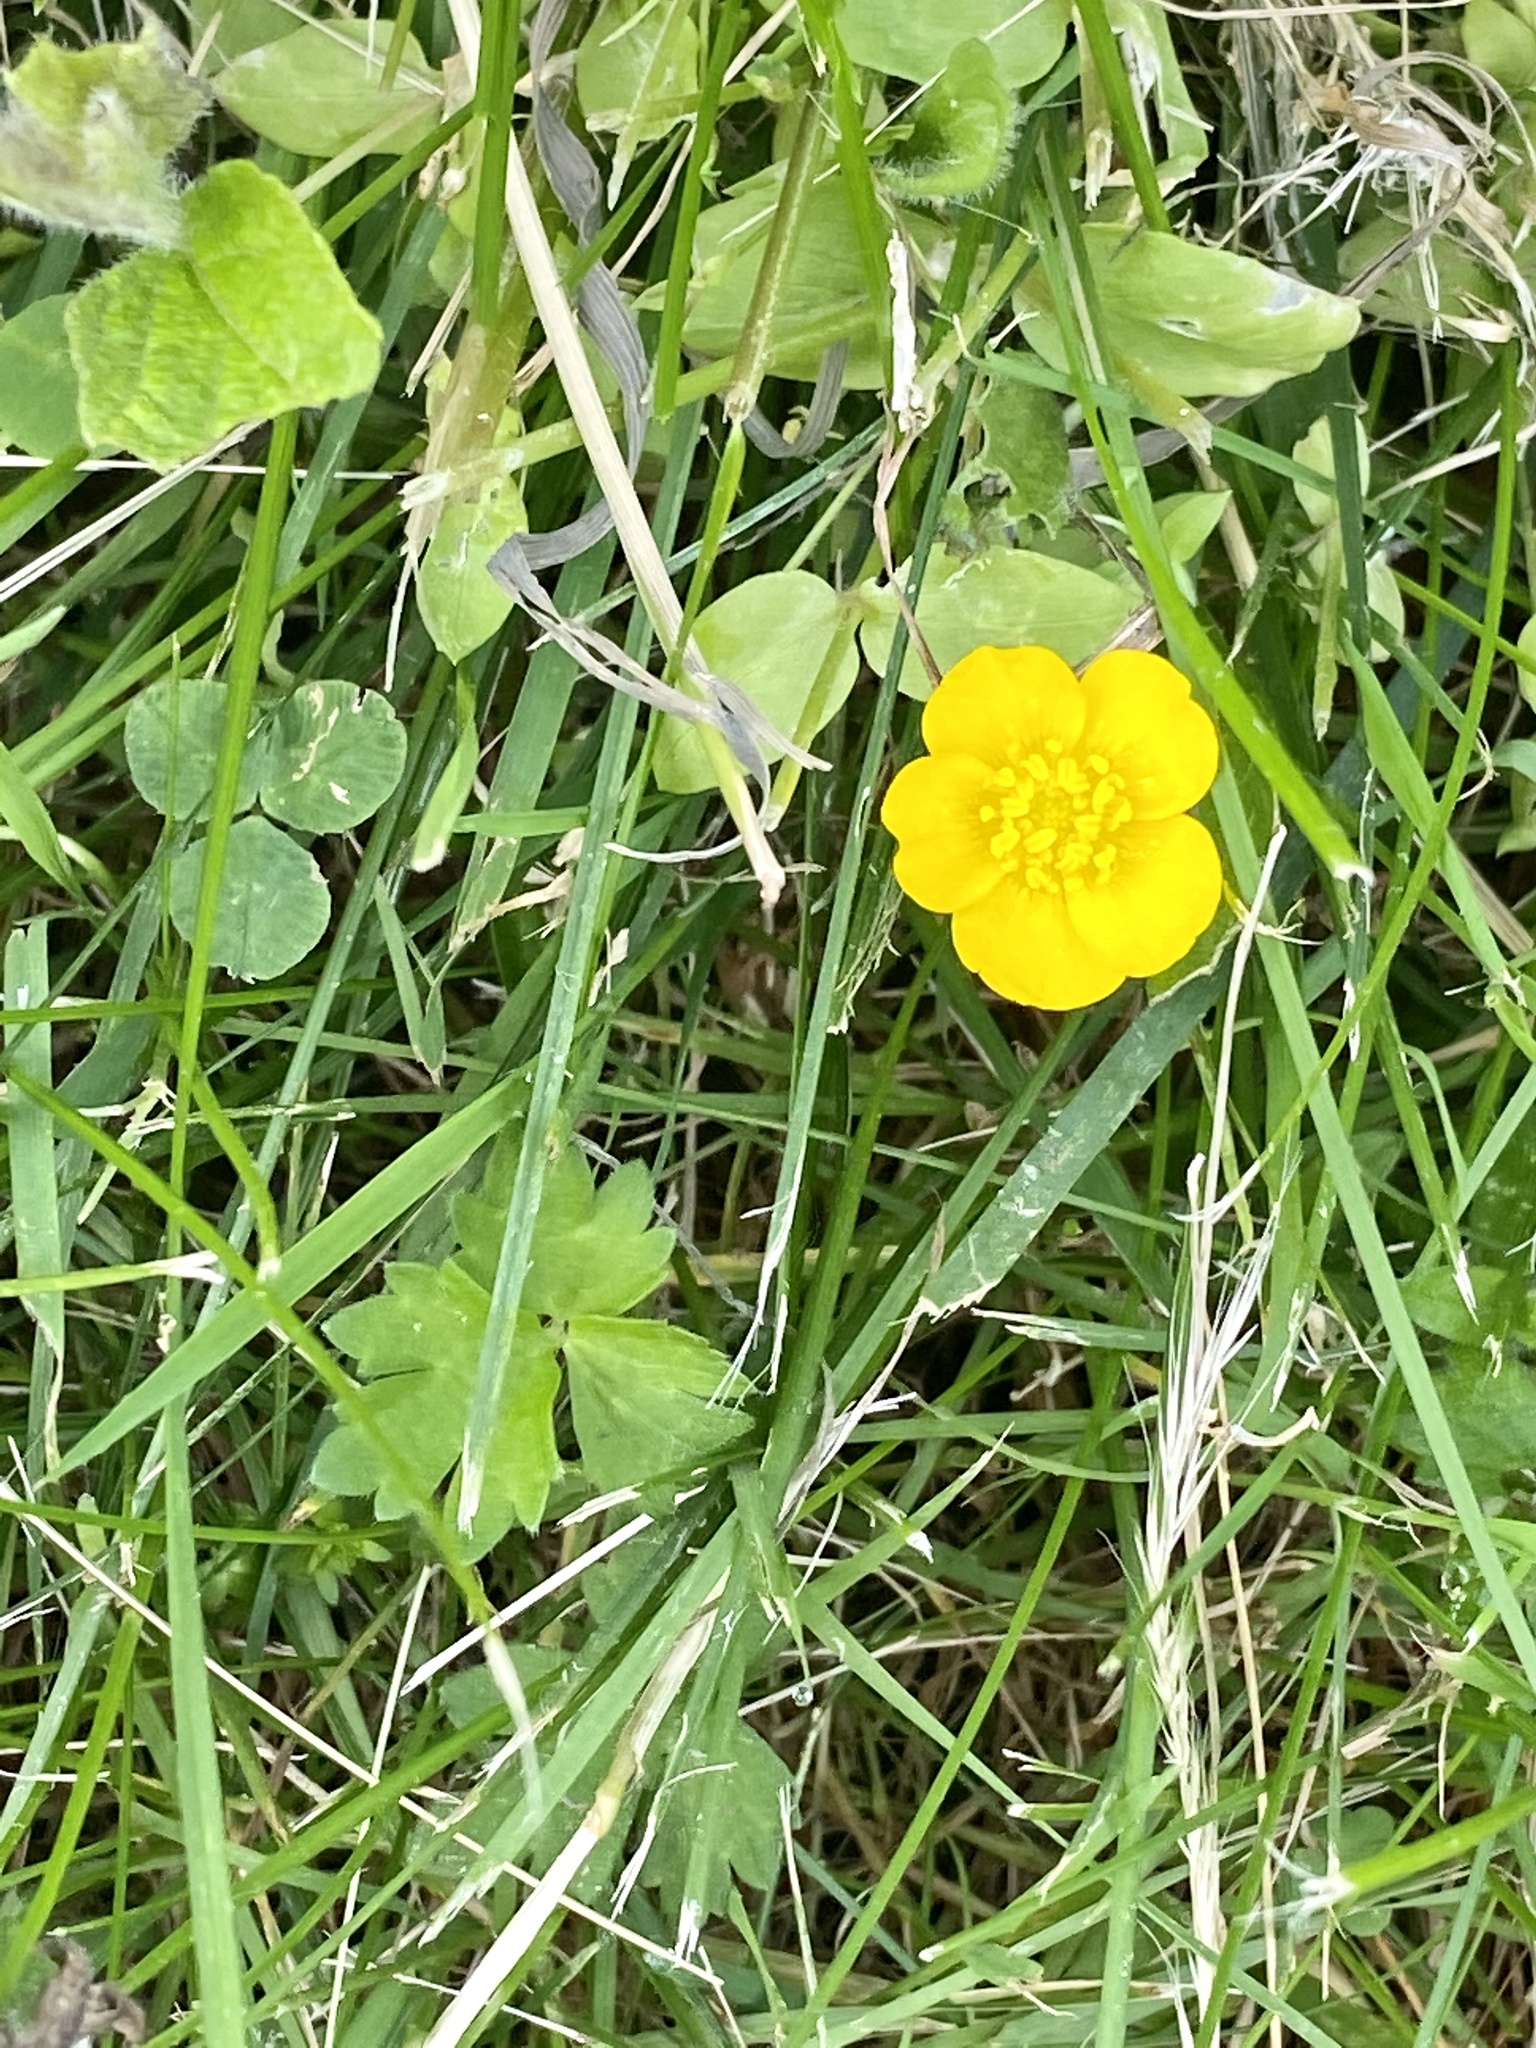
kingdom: Plantae
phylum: Tracheophyta
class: Magnoliopsida
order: Ranunculales
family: Ranunculaceae
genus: Ranunculus
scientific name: Ranunculus repens
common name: Creeping buttercup
